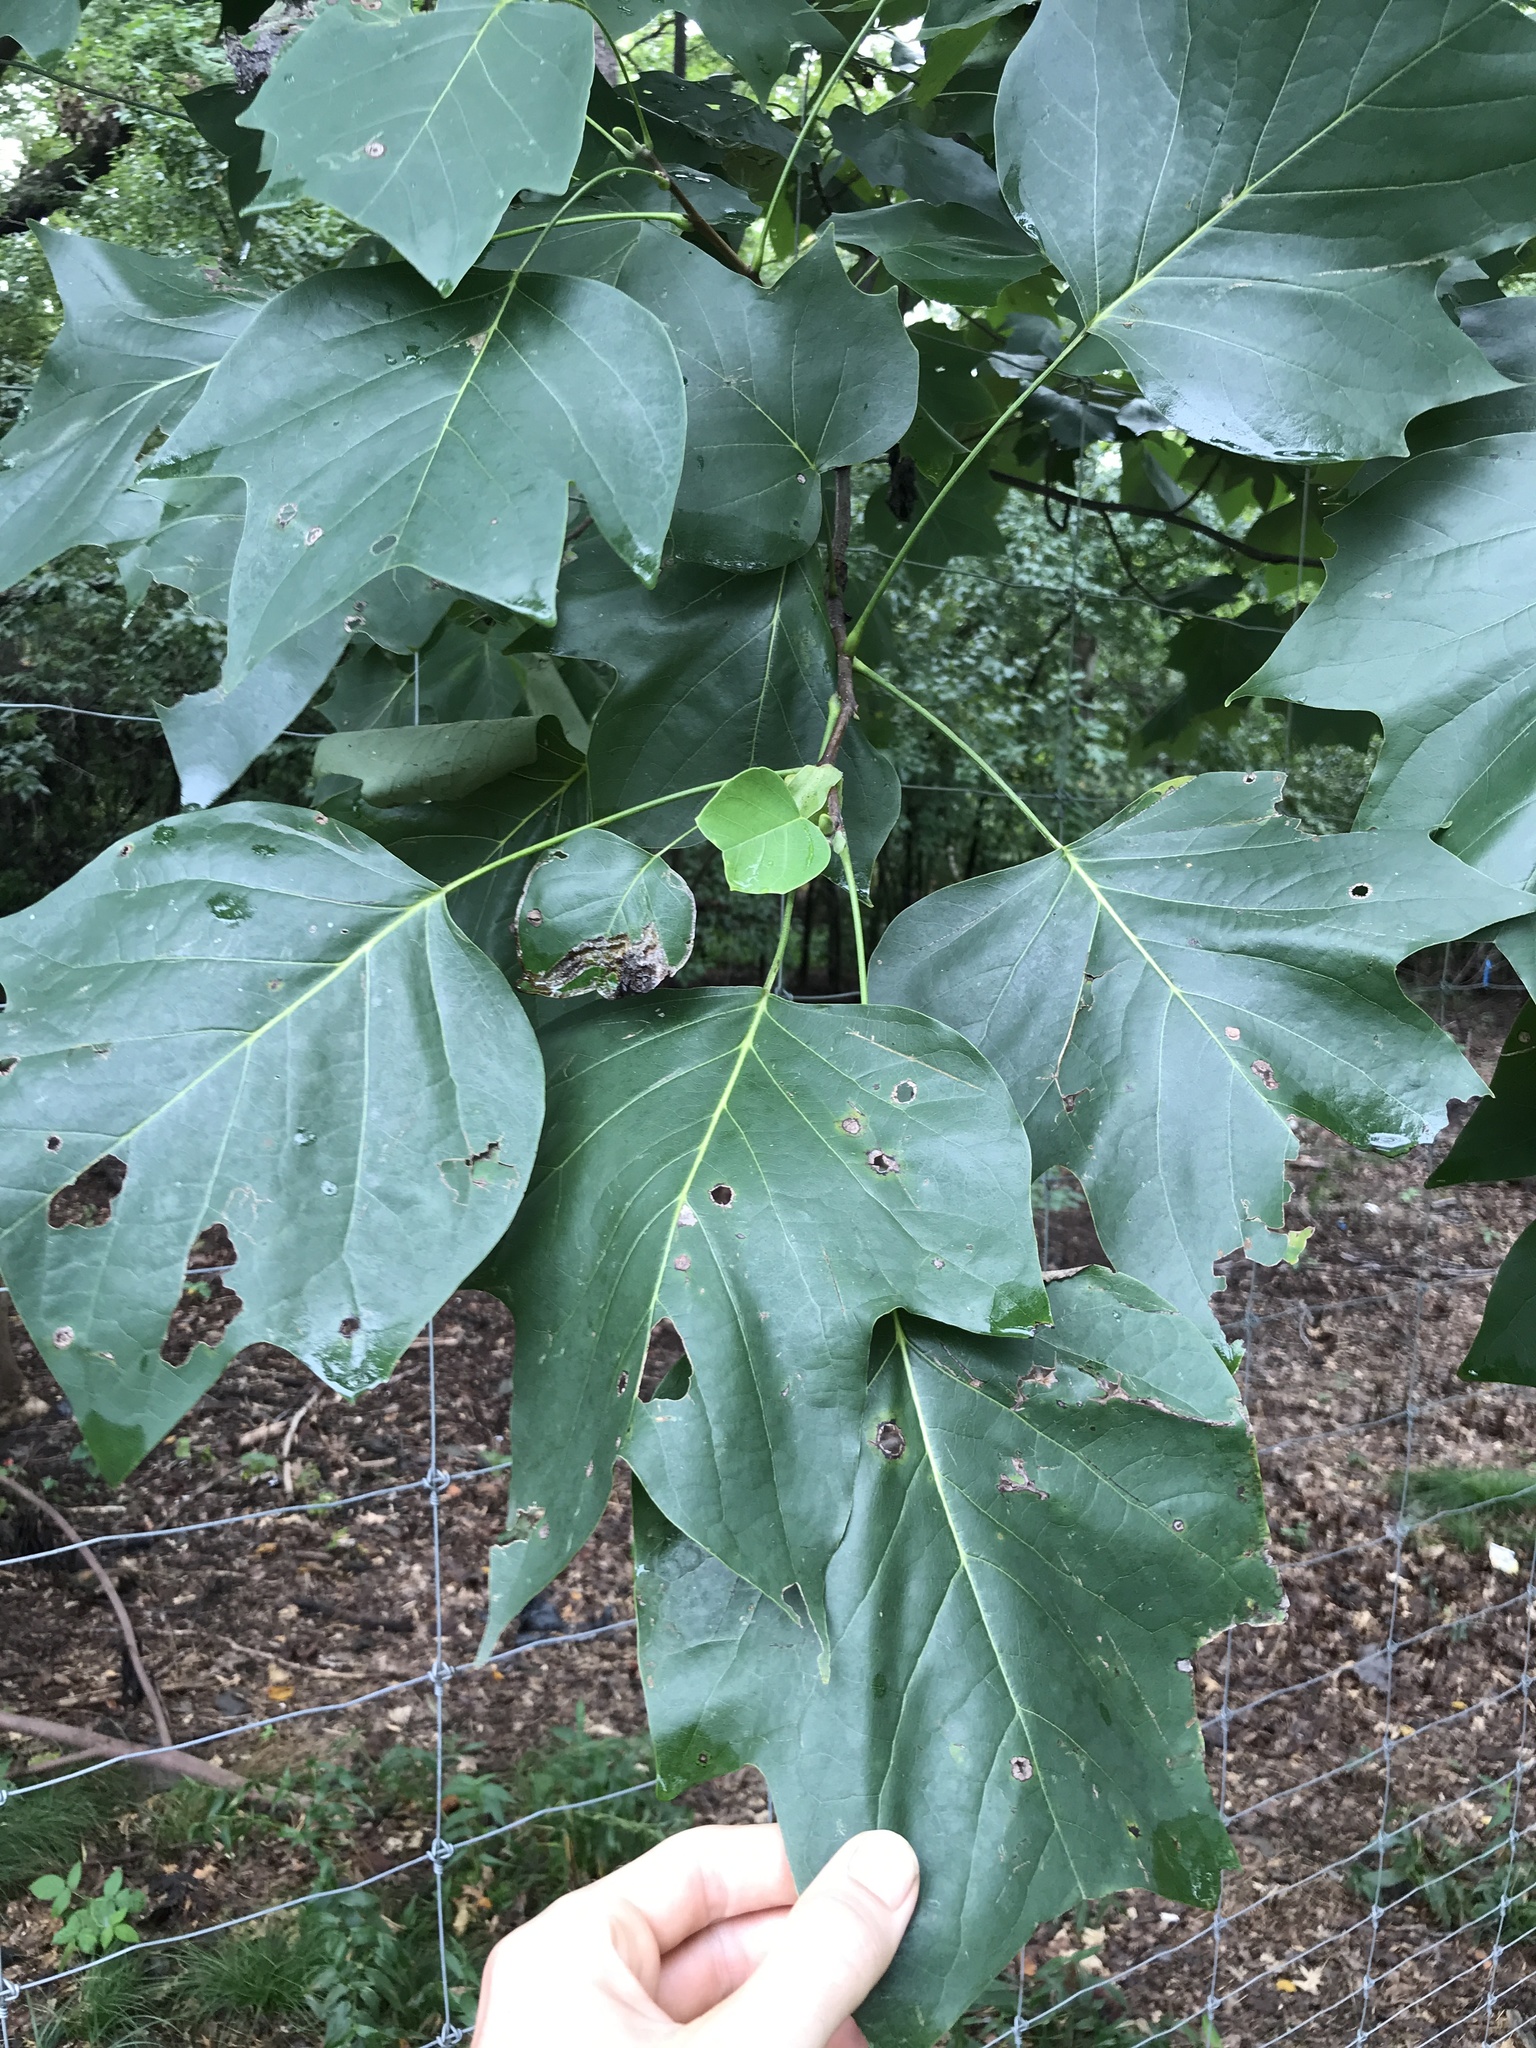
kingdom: Plantae
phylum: Tracheophyta
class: Magnoliopsida
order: Magnoliales
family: Magnoliaceae
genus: Liriodendron
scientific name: Liriodendron tulipifera
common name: Tulip tree
